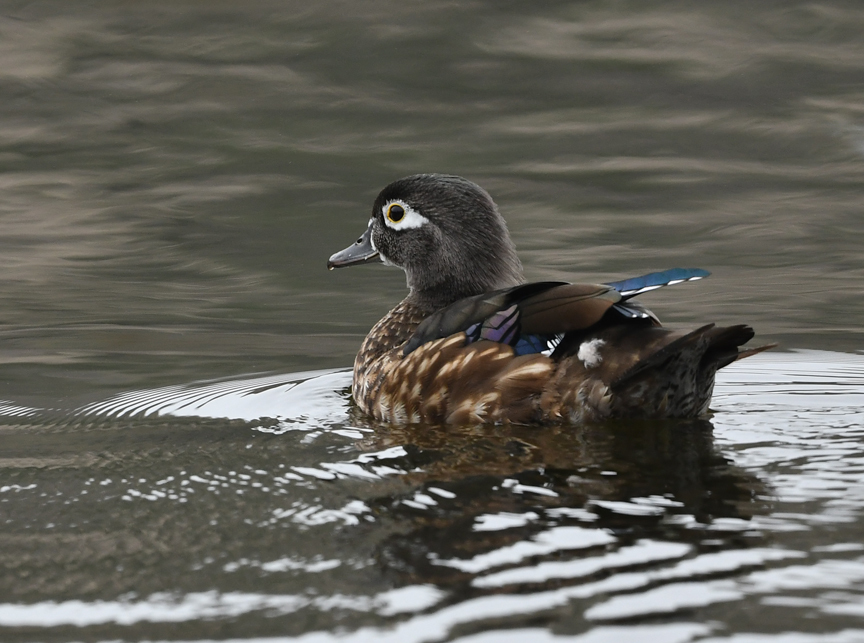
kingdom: Animalia
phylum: Chordata
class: Aves
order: Anseriformes
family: Anatidae
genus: Aix
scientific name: Aix sponsa
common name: Wood duck
